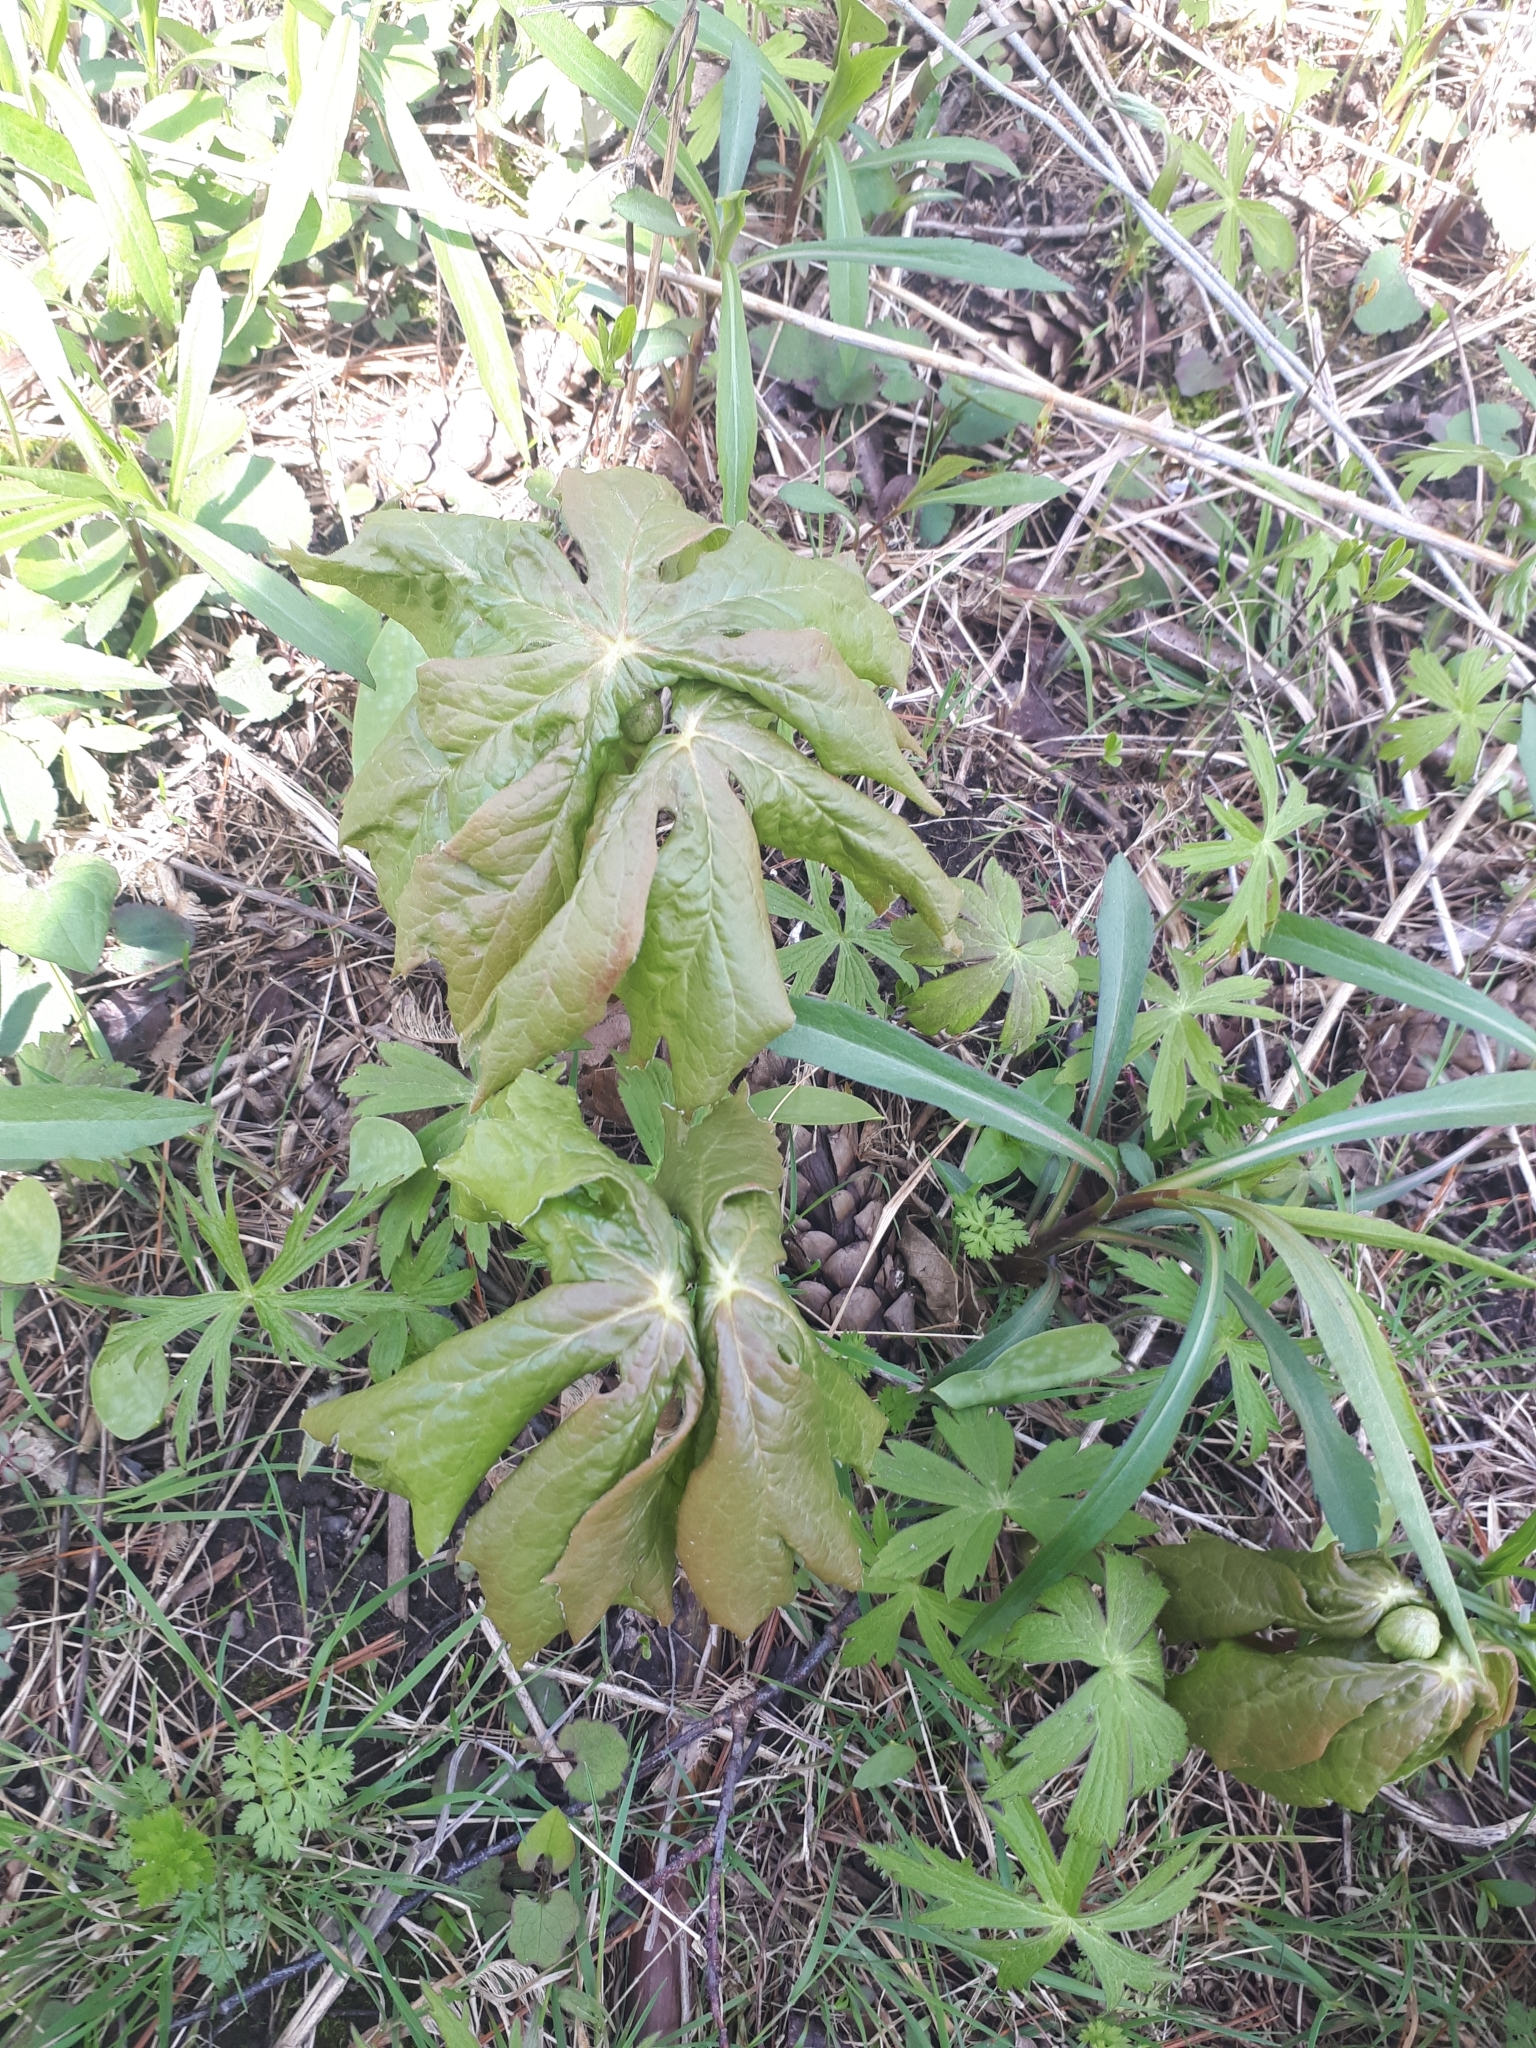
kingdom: Plantae
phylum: Tracheophyta
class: Magnoliopsida
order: Ranunculales
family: Berberidaceae
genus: Podophyllum
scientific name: Podophyllum peltatum
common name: Wild mandrake
